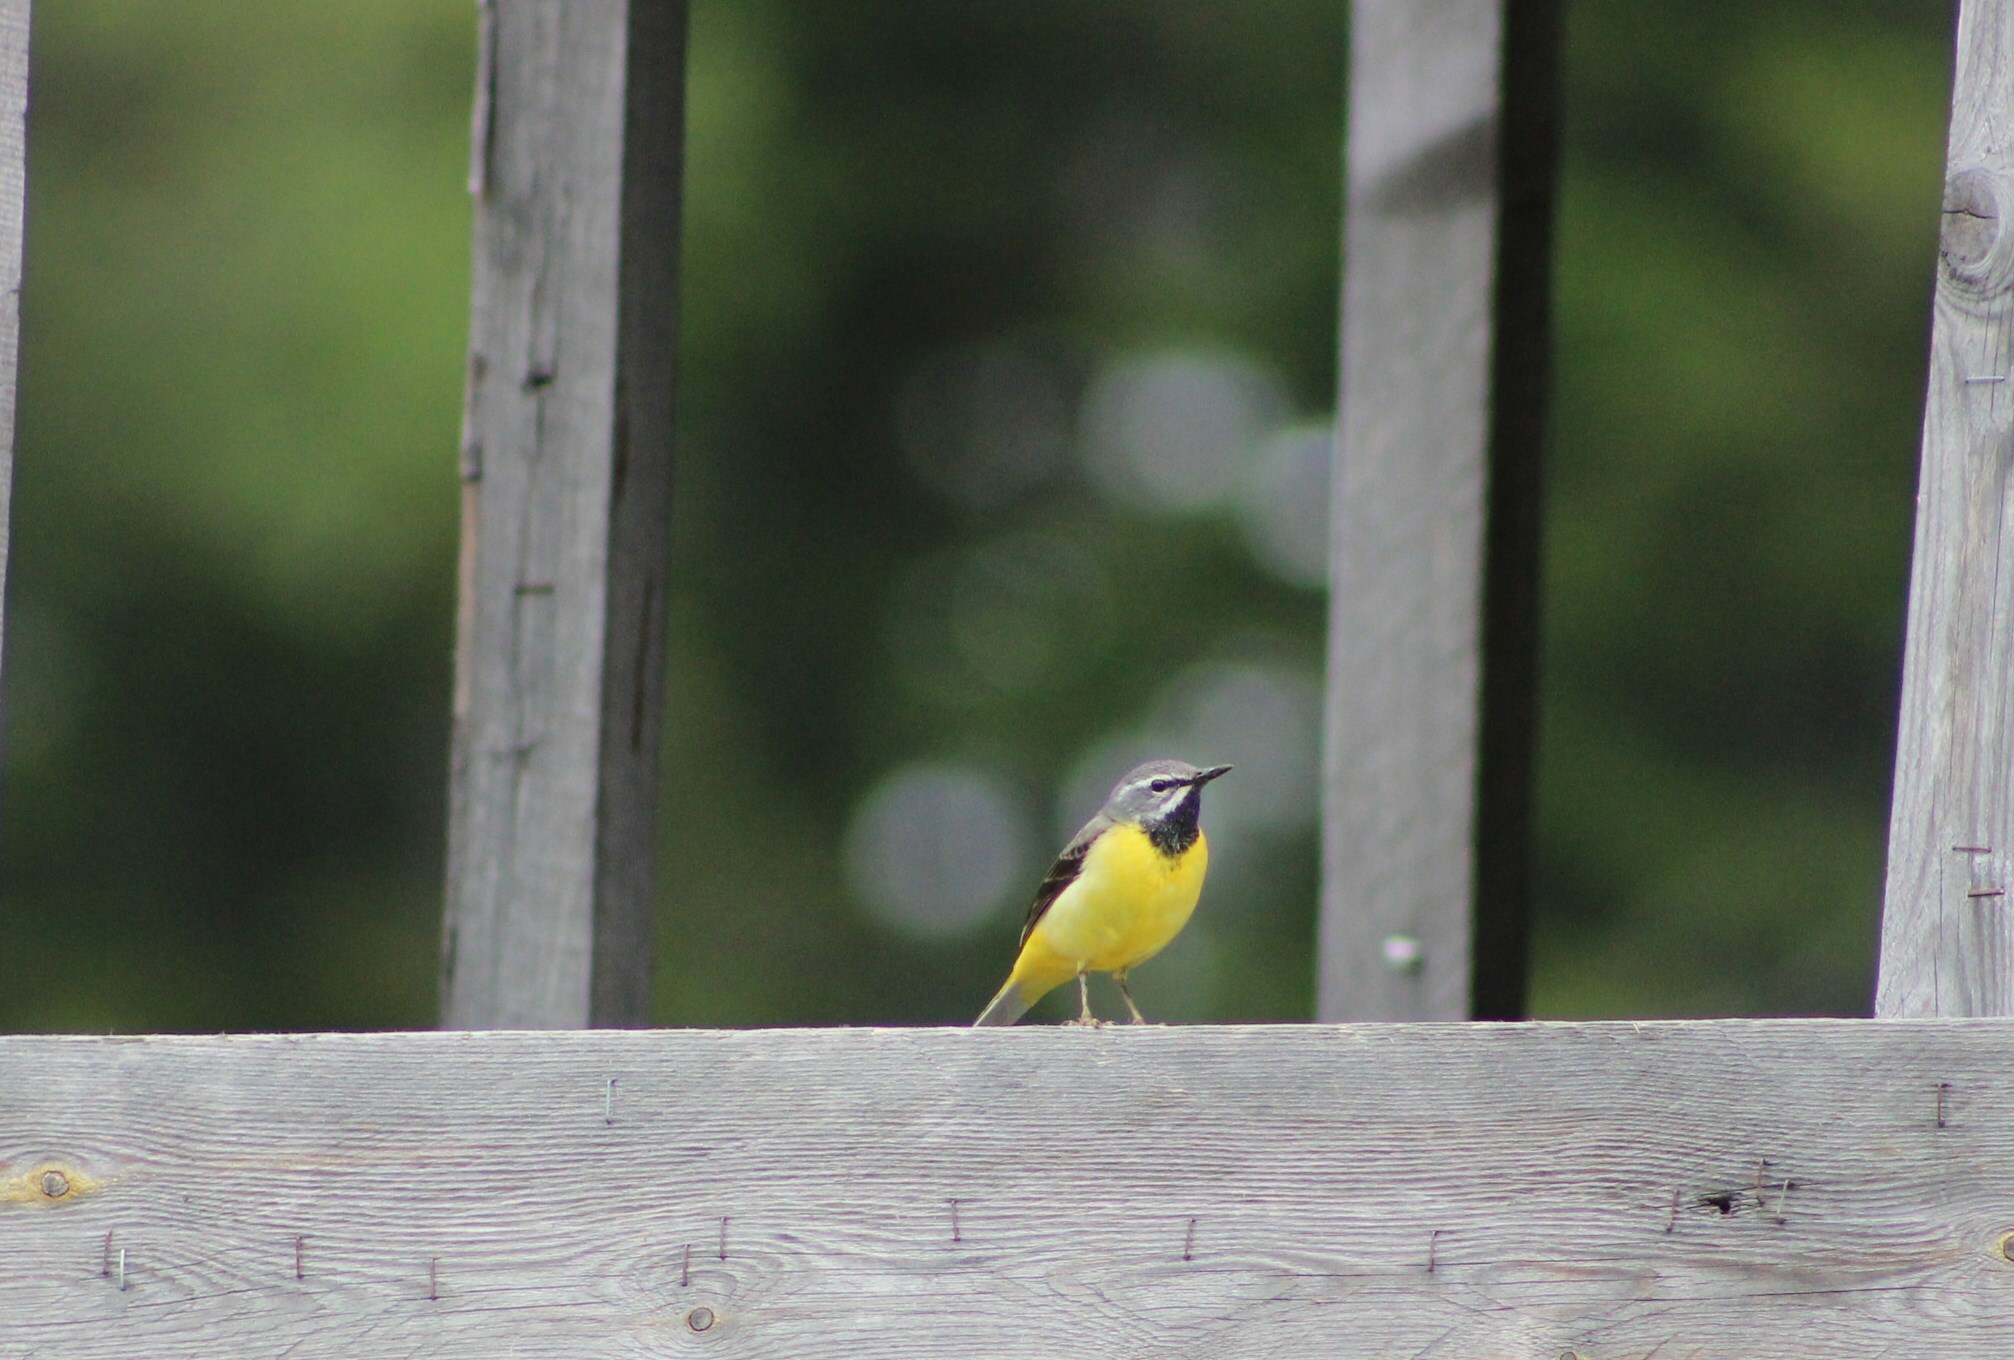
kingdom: Animalia
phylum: Chordata
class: Aves
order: Passeriformes
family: Motacillidae
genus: Motacilla
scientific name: Motacilla cinerea
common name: Grey wagtail
